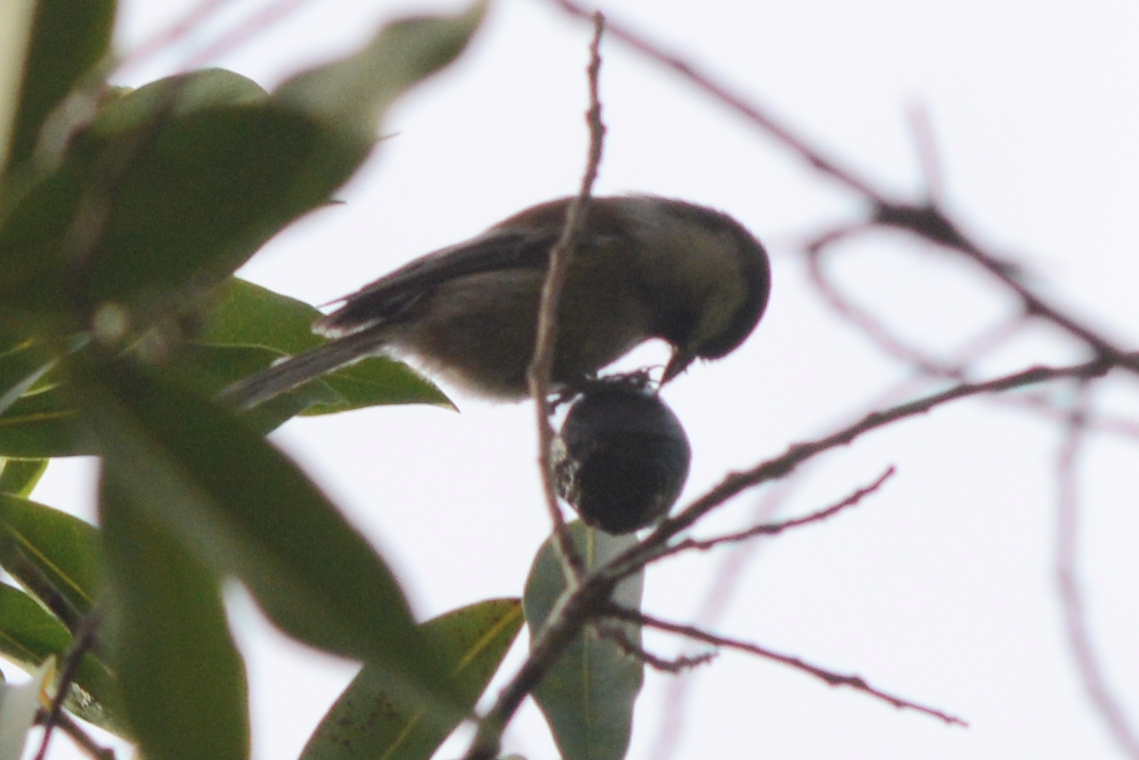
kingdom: Animalia
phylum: Chordata
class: Aves
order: Passeriformes
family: Paridae
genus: Poecile
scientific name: Poecile rufescens
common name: Chestnut-backed chickadee
